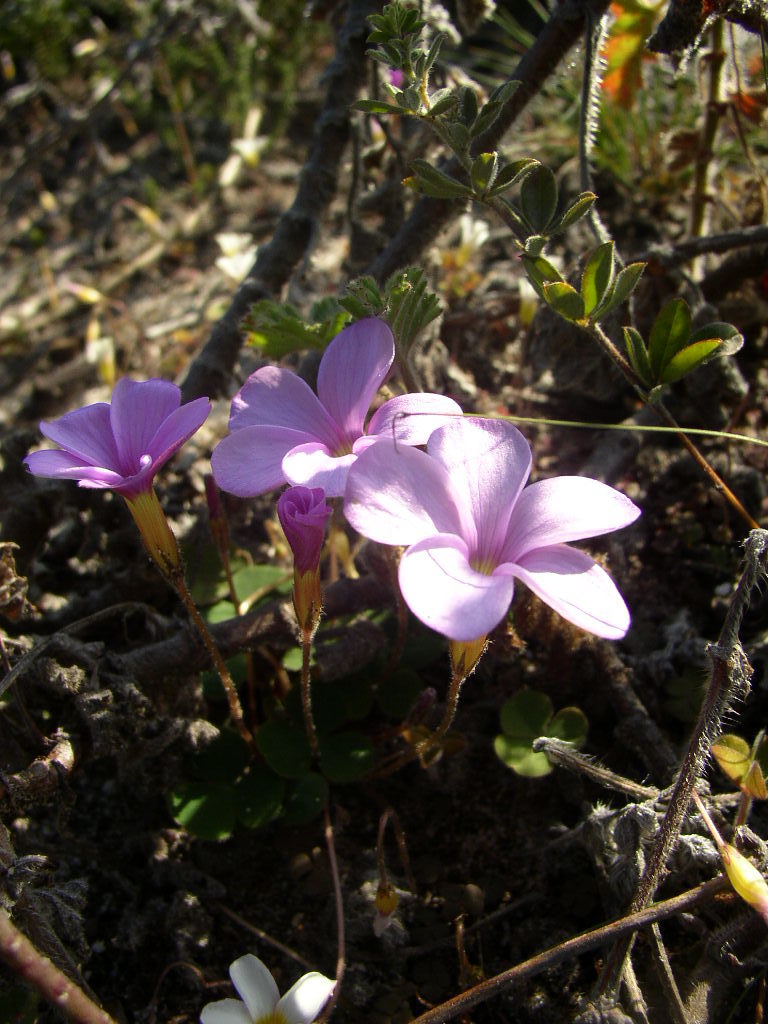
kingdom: Plantae
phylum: Tracheophyta
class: Magnoliopsida
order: Oxalidales
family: Oxalidaceae
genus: Oxalis
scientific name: Oxalis eckloniana
